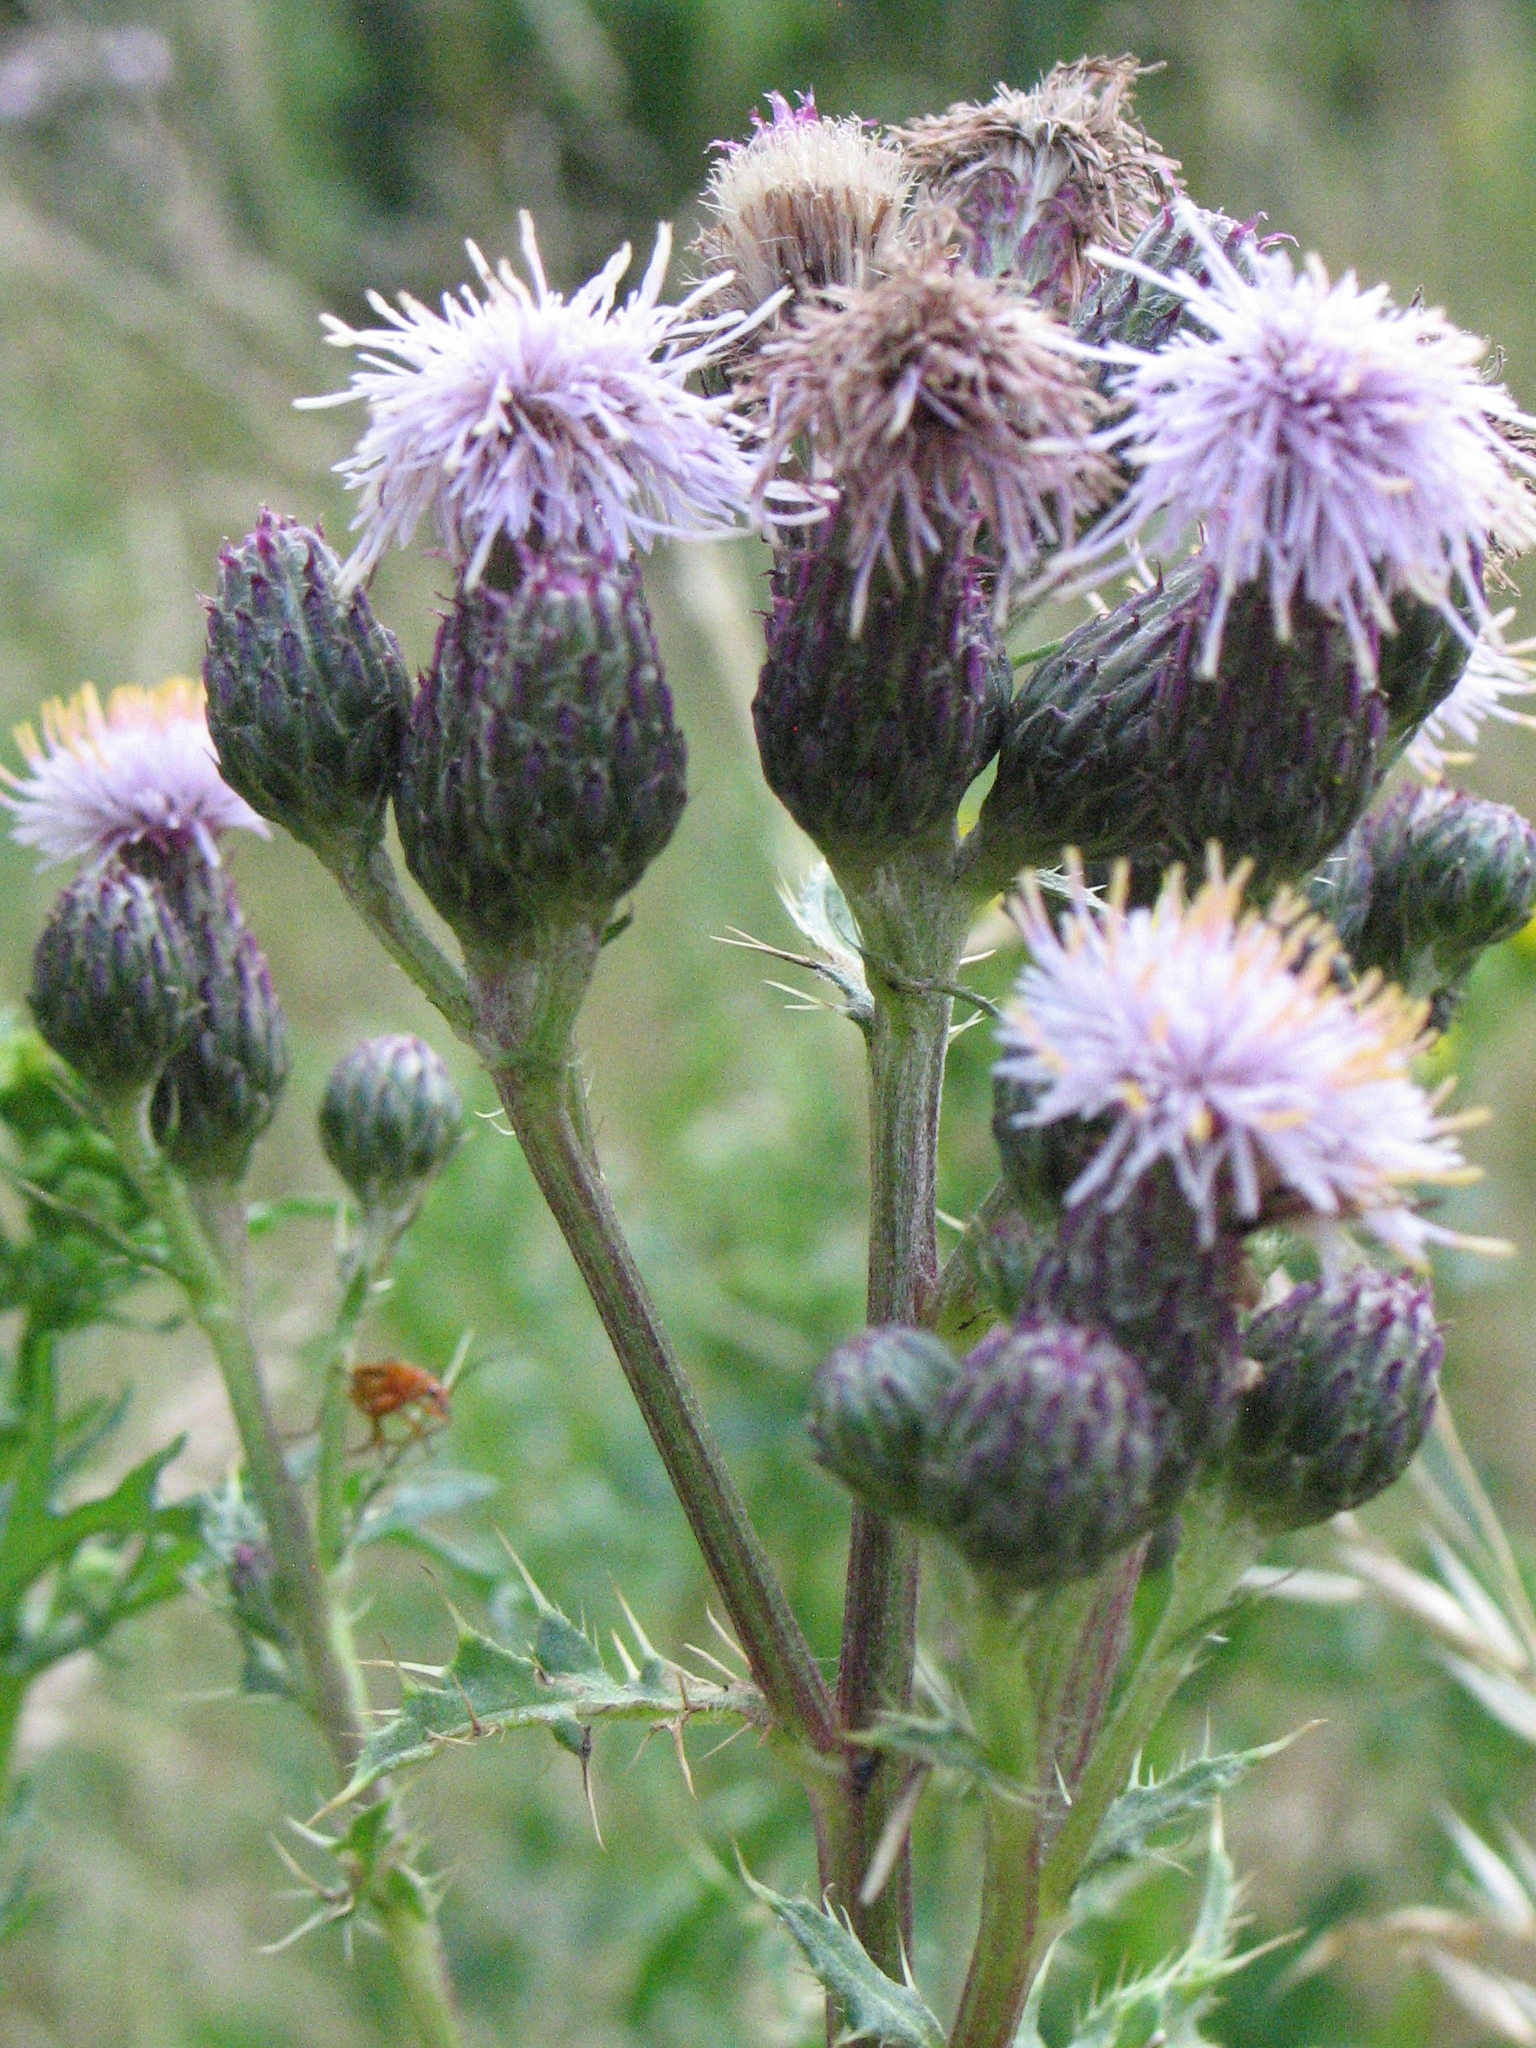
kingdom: Plantae
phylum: Tracheophyta
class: Magnoliopsida
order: Asterales
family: Asteraceae
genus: Cirsium
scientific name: Cirsium arvense
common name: Creeping thistle
